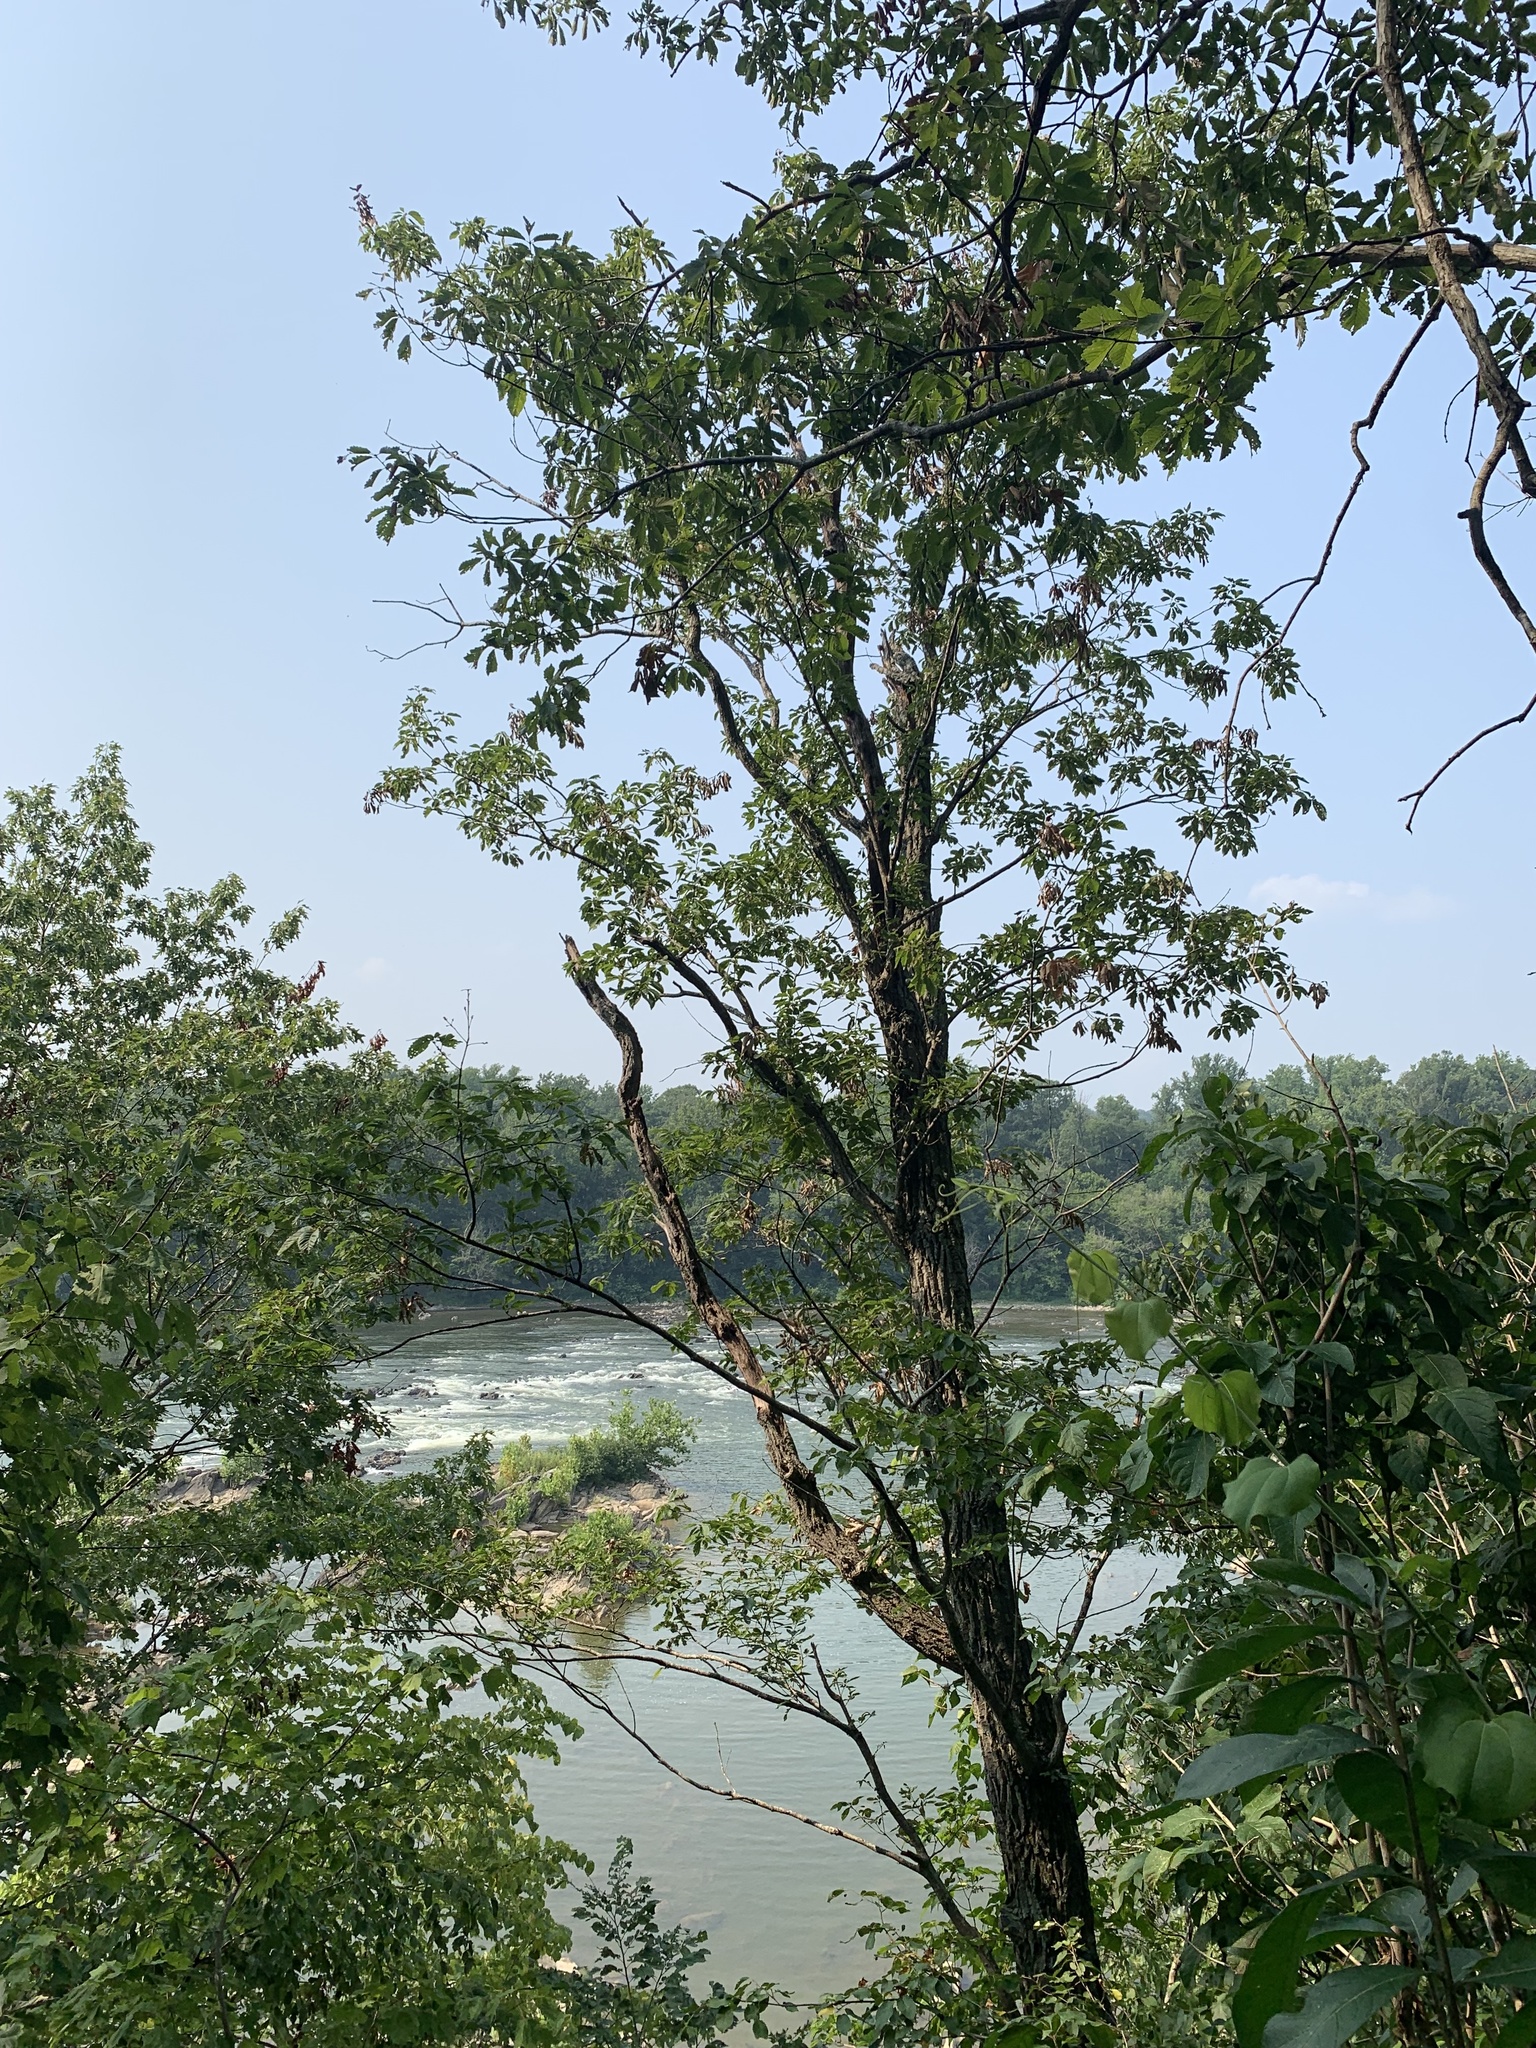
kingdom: Plantae
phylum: Tracheophyta
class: Magnoliopsida
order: Fagales
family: Fagaceae
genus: Quercus
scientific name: Quercus montana
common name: Chestnut oak
